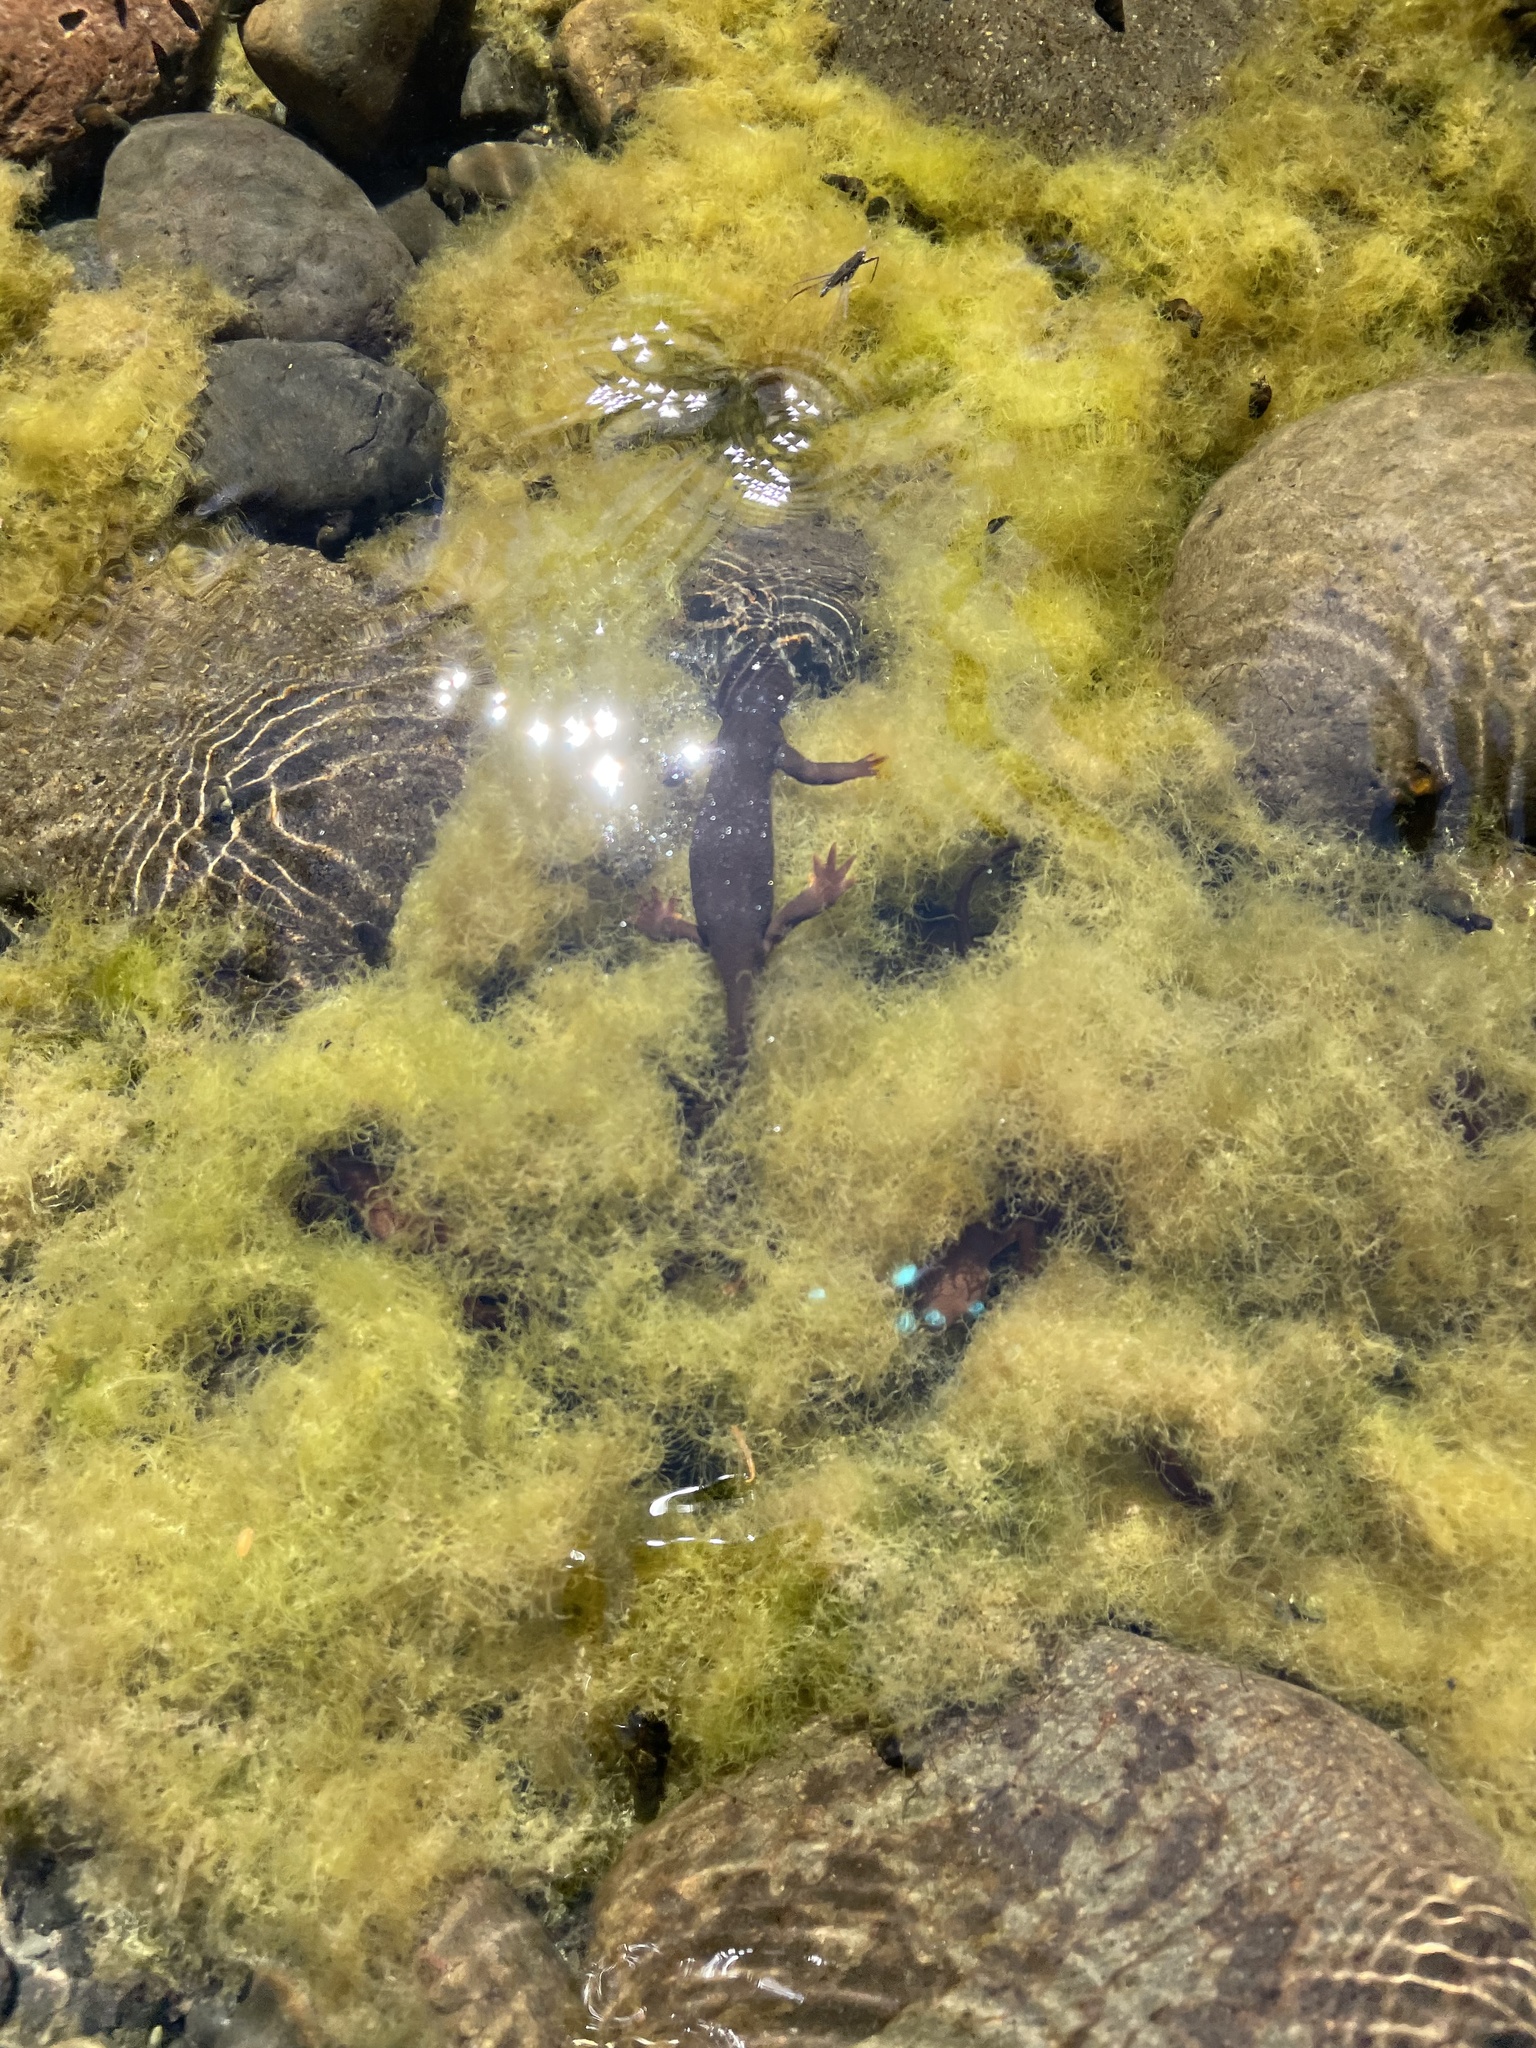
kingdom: Animalia
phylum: Chordata
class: Amphibia
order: Caudata
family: Salamandridae
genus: Taricha
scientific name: Taricha granulosa
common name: Roughskin newt
